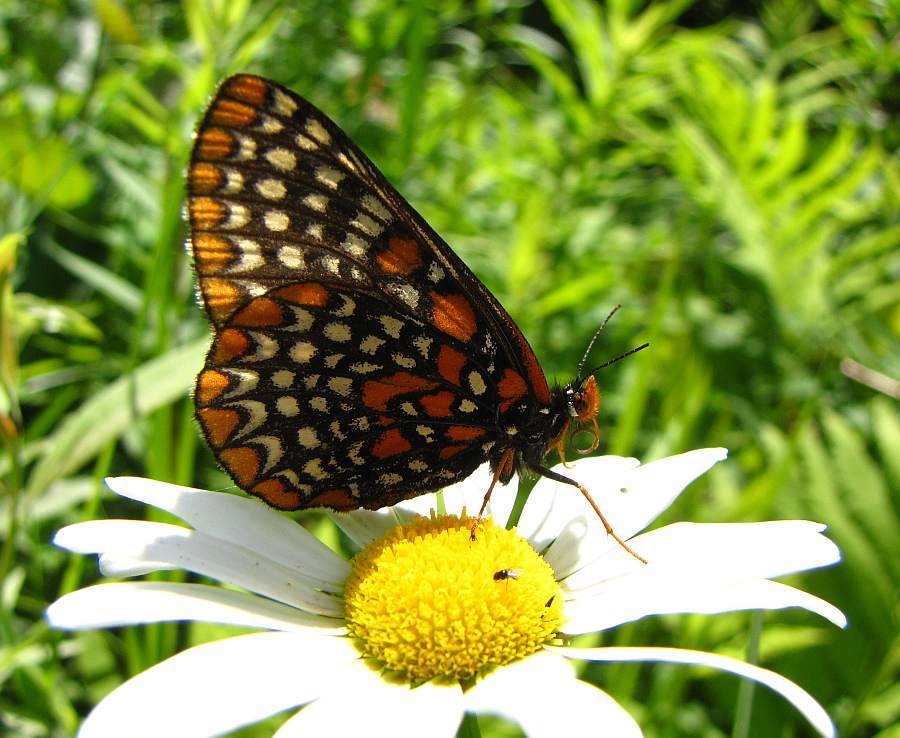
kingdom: Animalia
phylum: Arthropoda
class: Insecta
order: Lepidoptera
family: Nymphalidae
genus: Euphydryas
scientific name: Euphydryas phaeton
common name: Baltimore checkerspot
